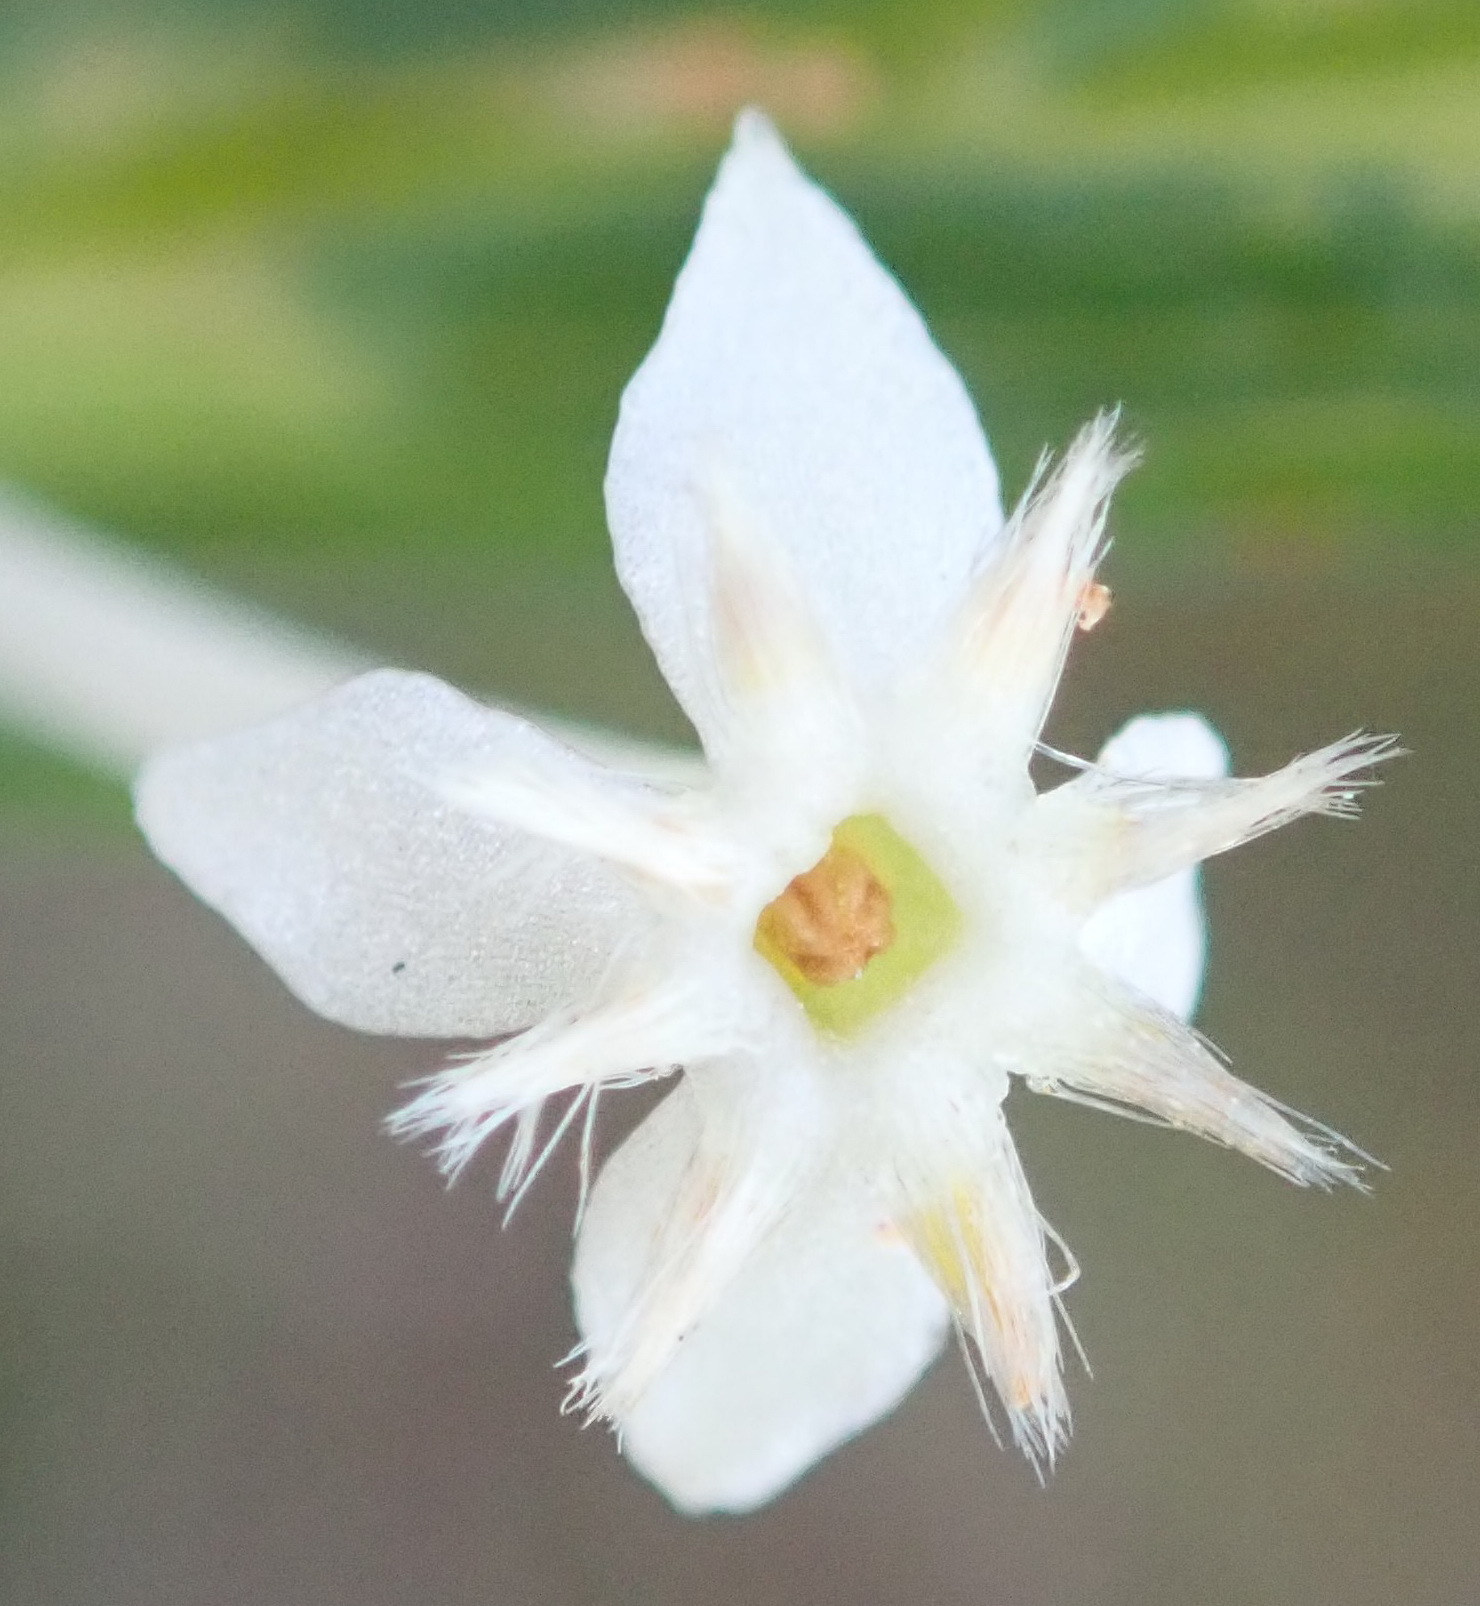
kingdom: Plantae
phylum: Tracheophyta
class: Magnoliopsida
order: Malvales
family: Thymelaeaceae
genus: Struthiola
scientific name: Struthiola myrsinites
